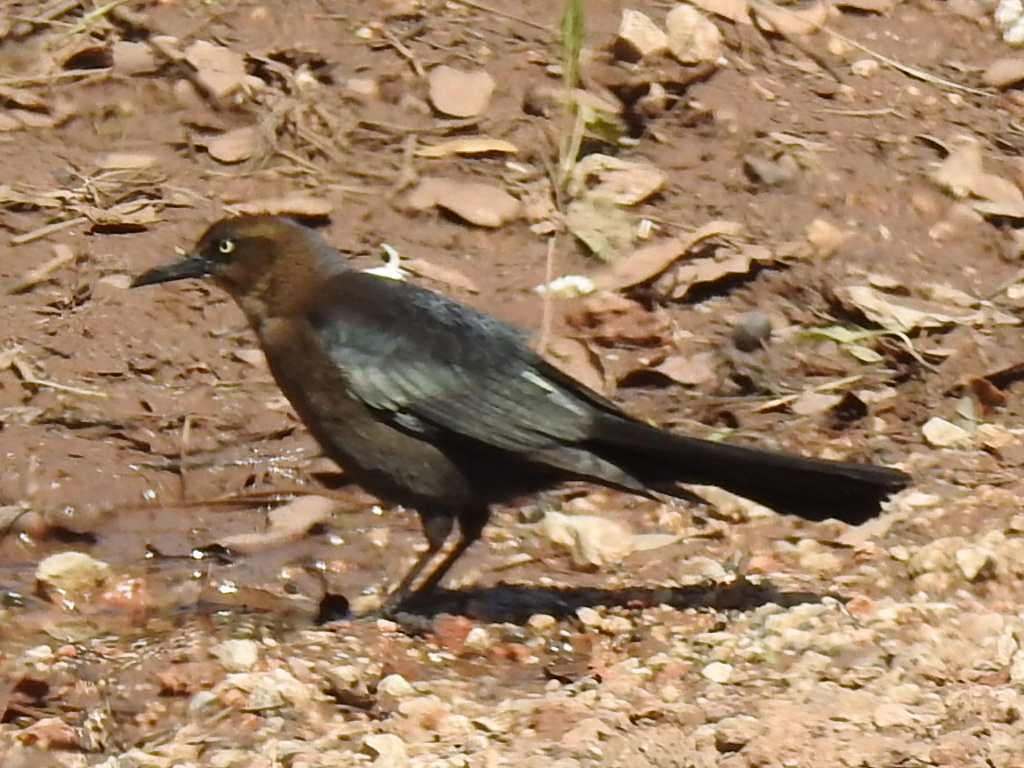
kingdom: Animalia
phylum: Chordata
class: Aves
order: Passeriformes
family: Icteridae
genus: Quiscalus
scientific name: Quiscalus mexicanus
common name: Great-tailed grackle
